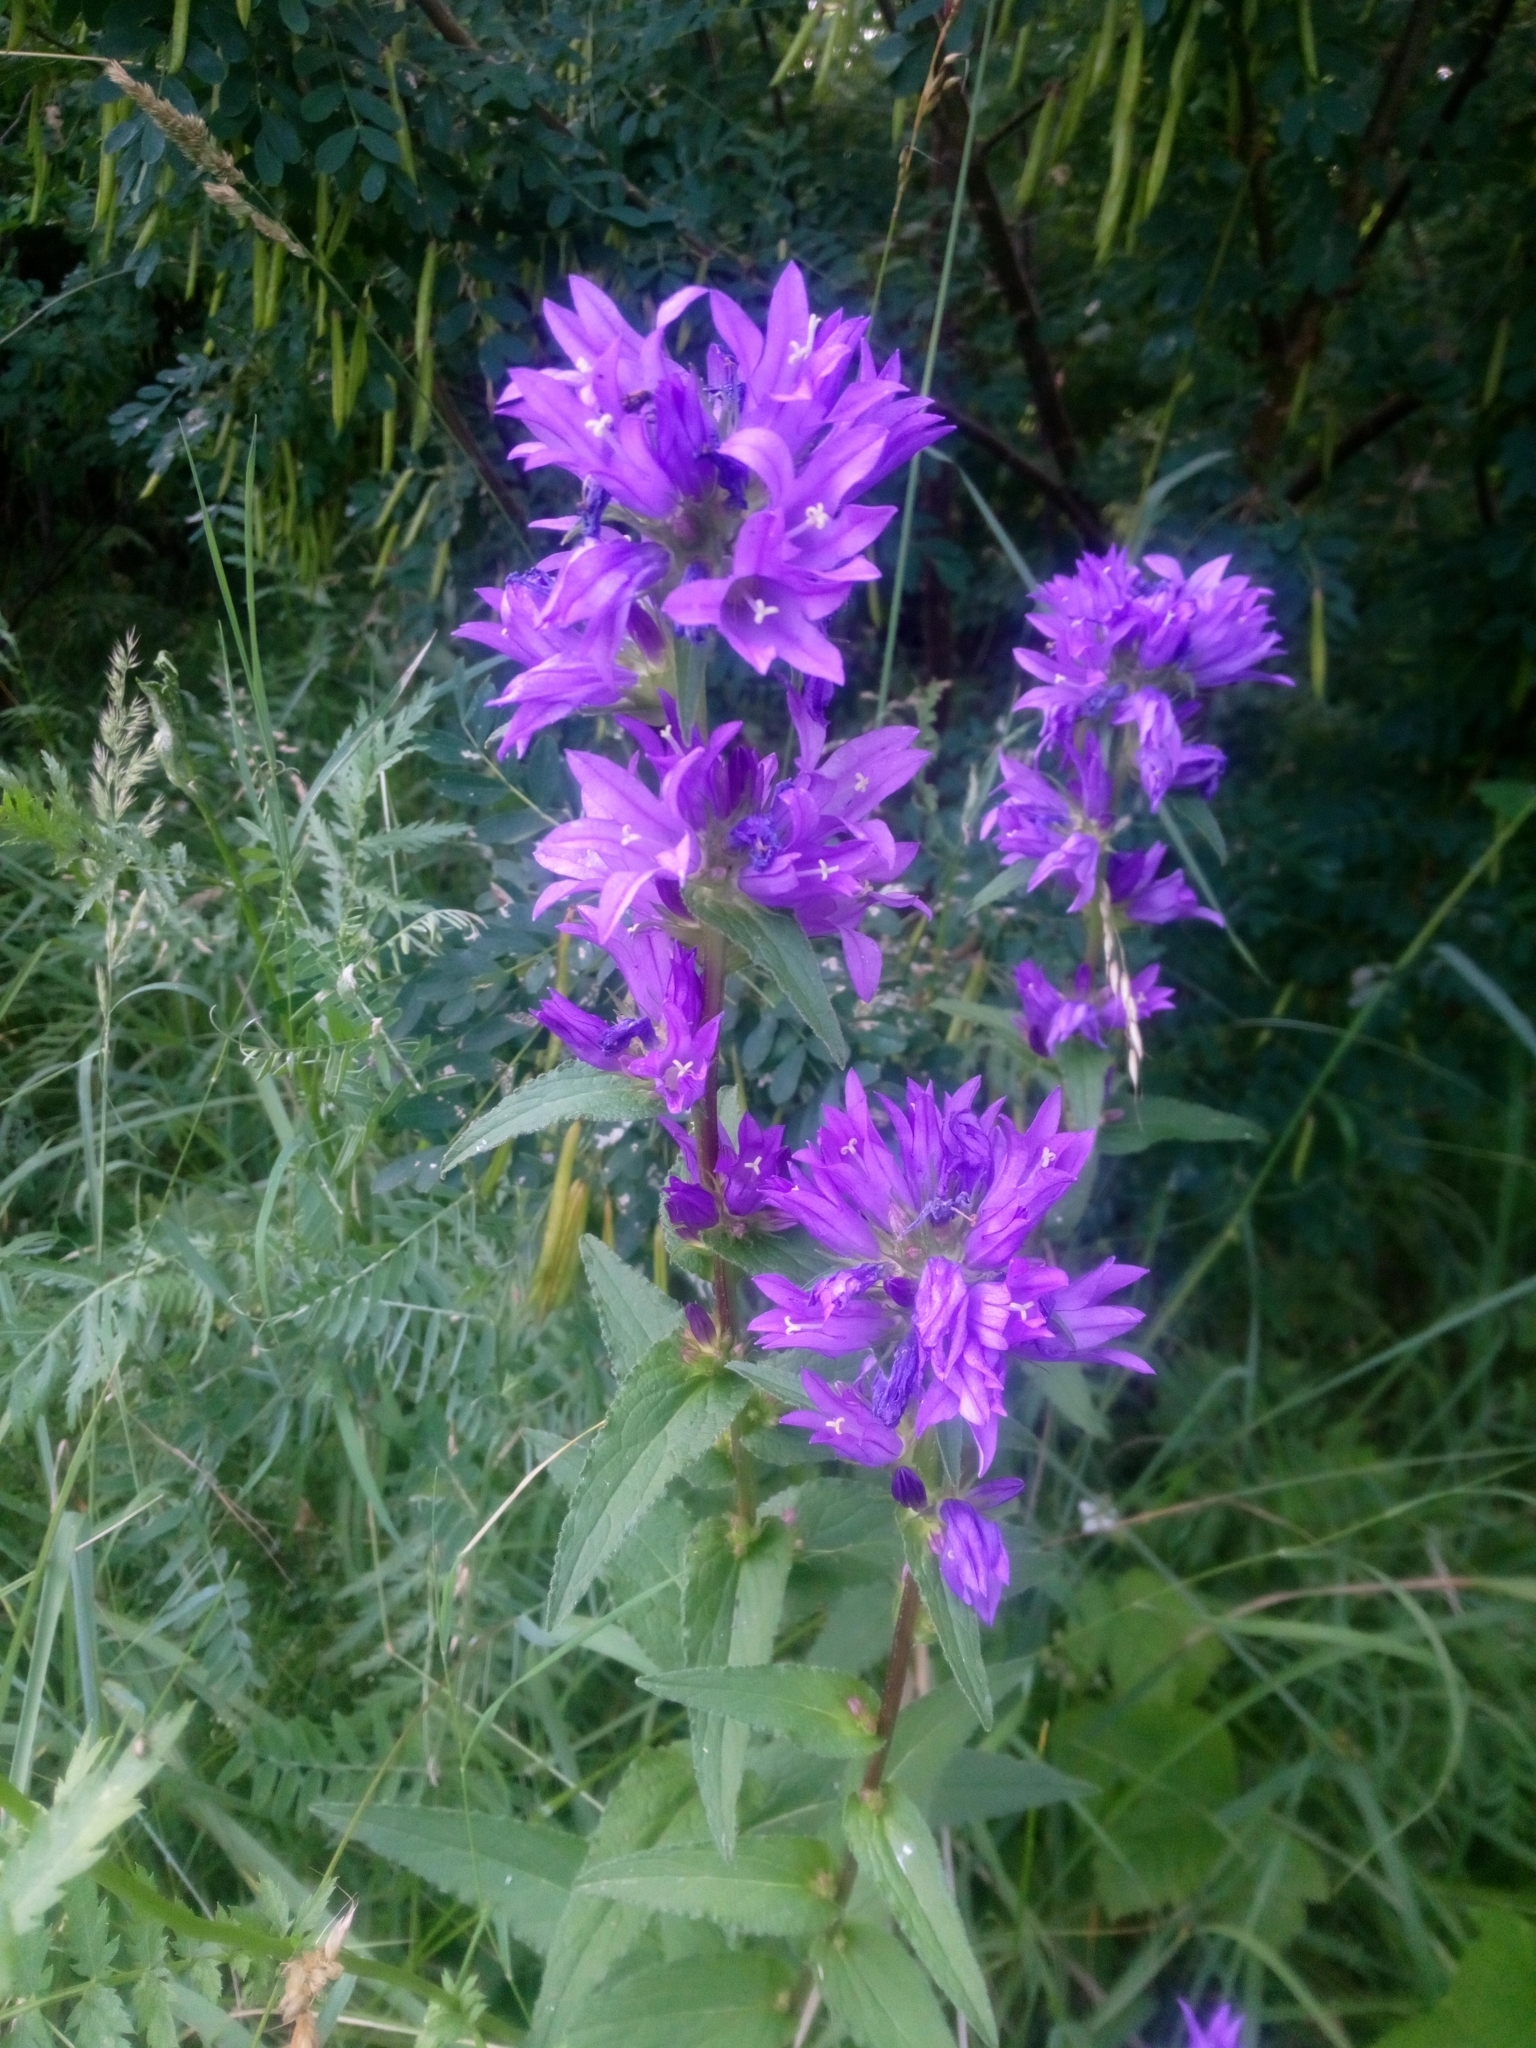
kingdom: Plantae
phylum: Tracheophyta
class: Magnoliopsida
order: Asterales
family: Campanulaceae
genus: Campanula
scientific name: Campanula glomerata
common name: Clustered bellflower
